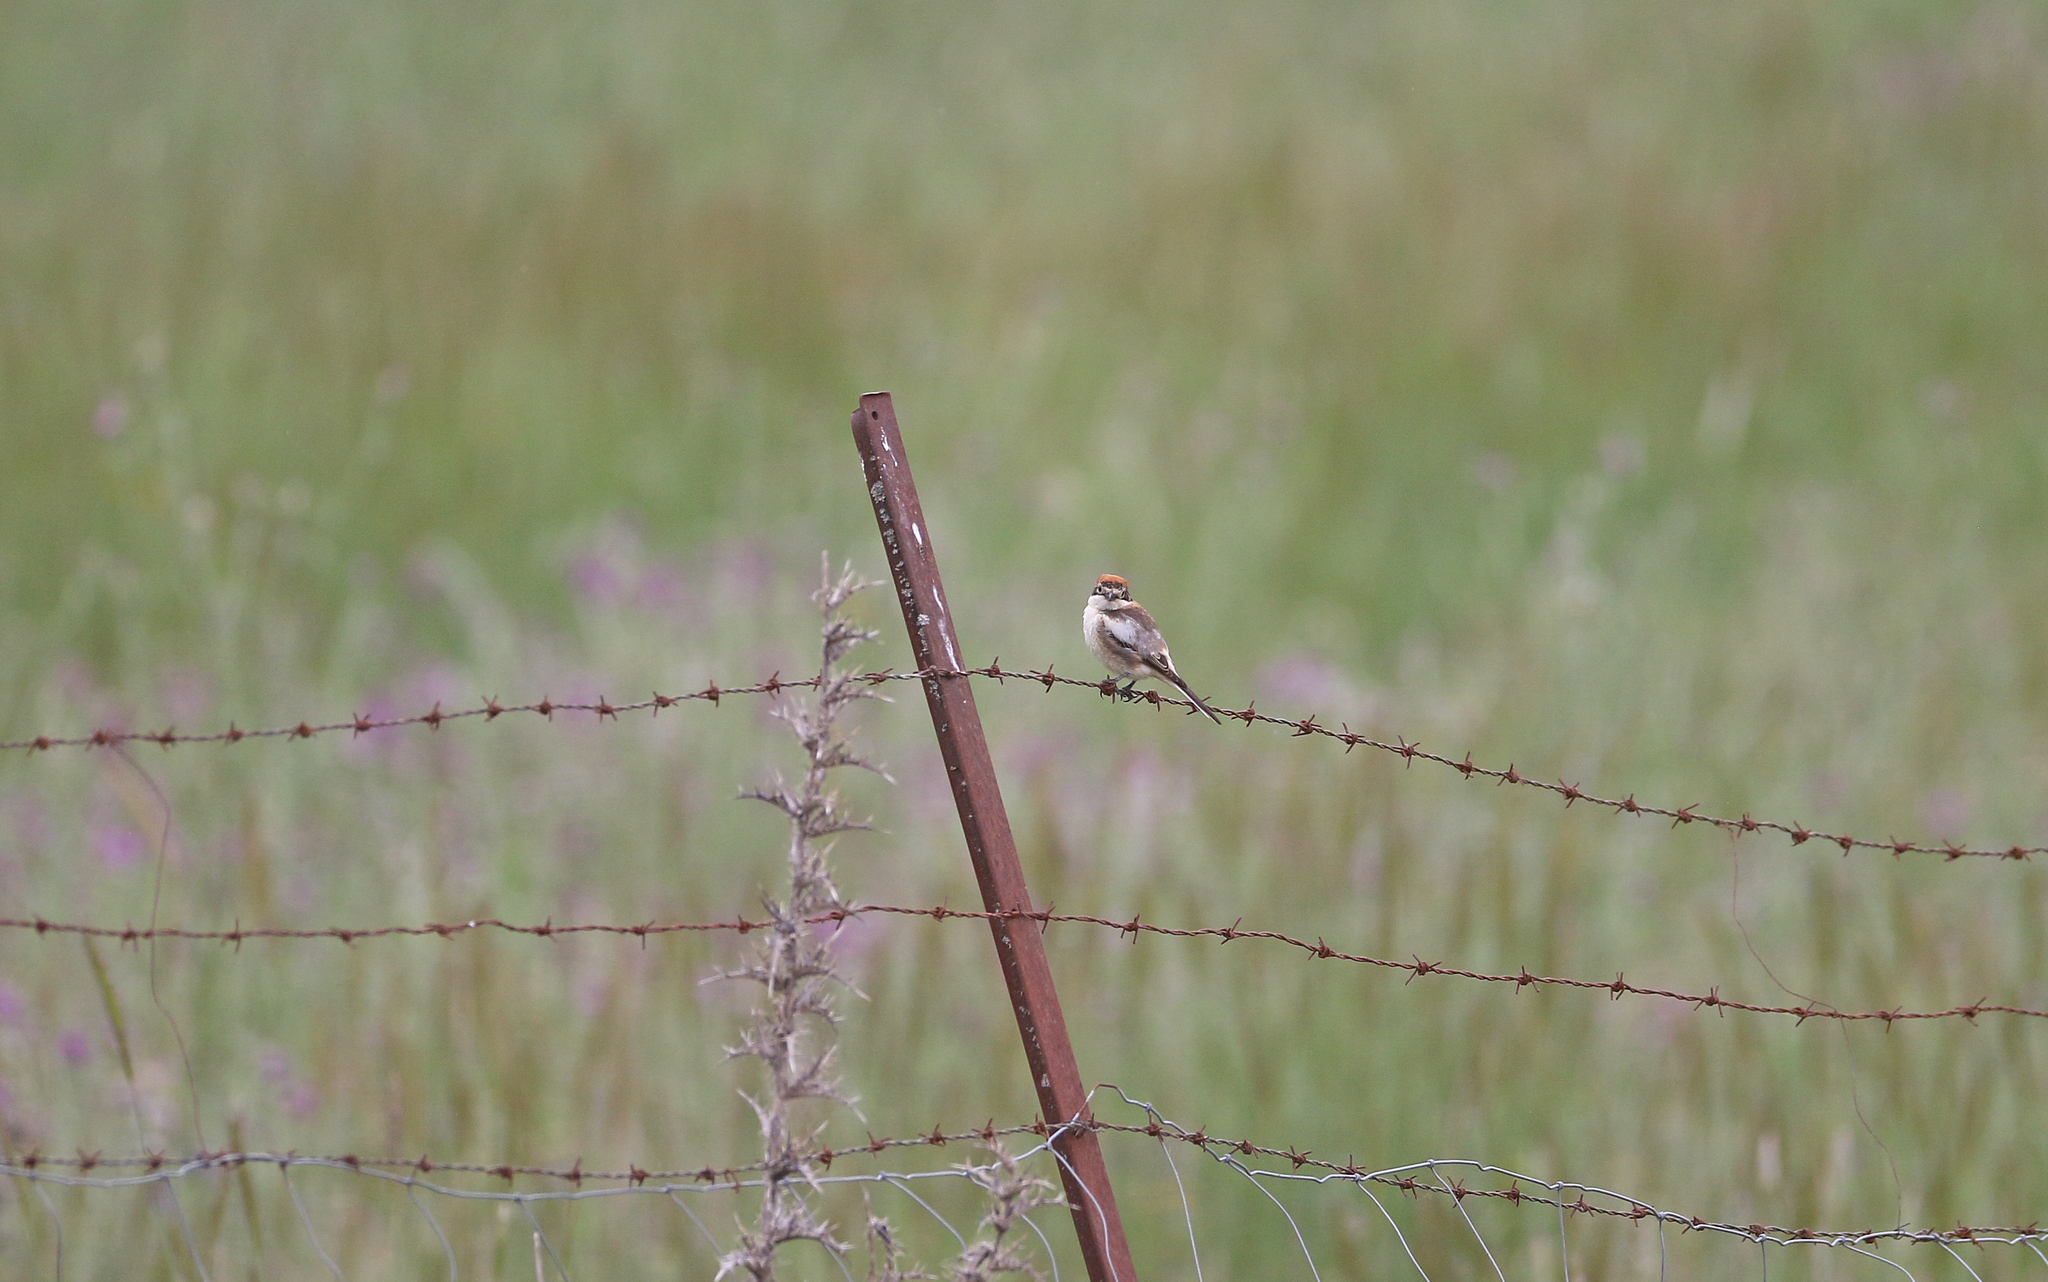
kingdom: Animalia
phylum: Chordata
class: Aves
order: Passeriformes
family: Laniidae
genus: Lanius
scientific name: Lanius senator
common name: Woodchat shrike
